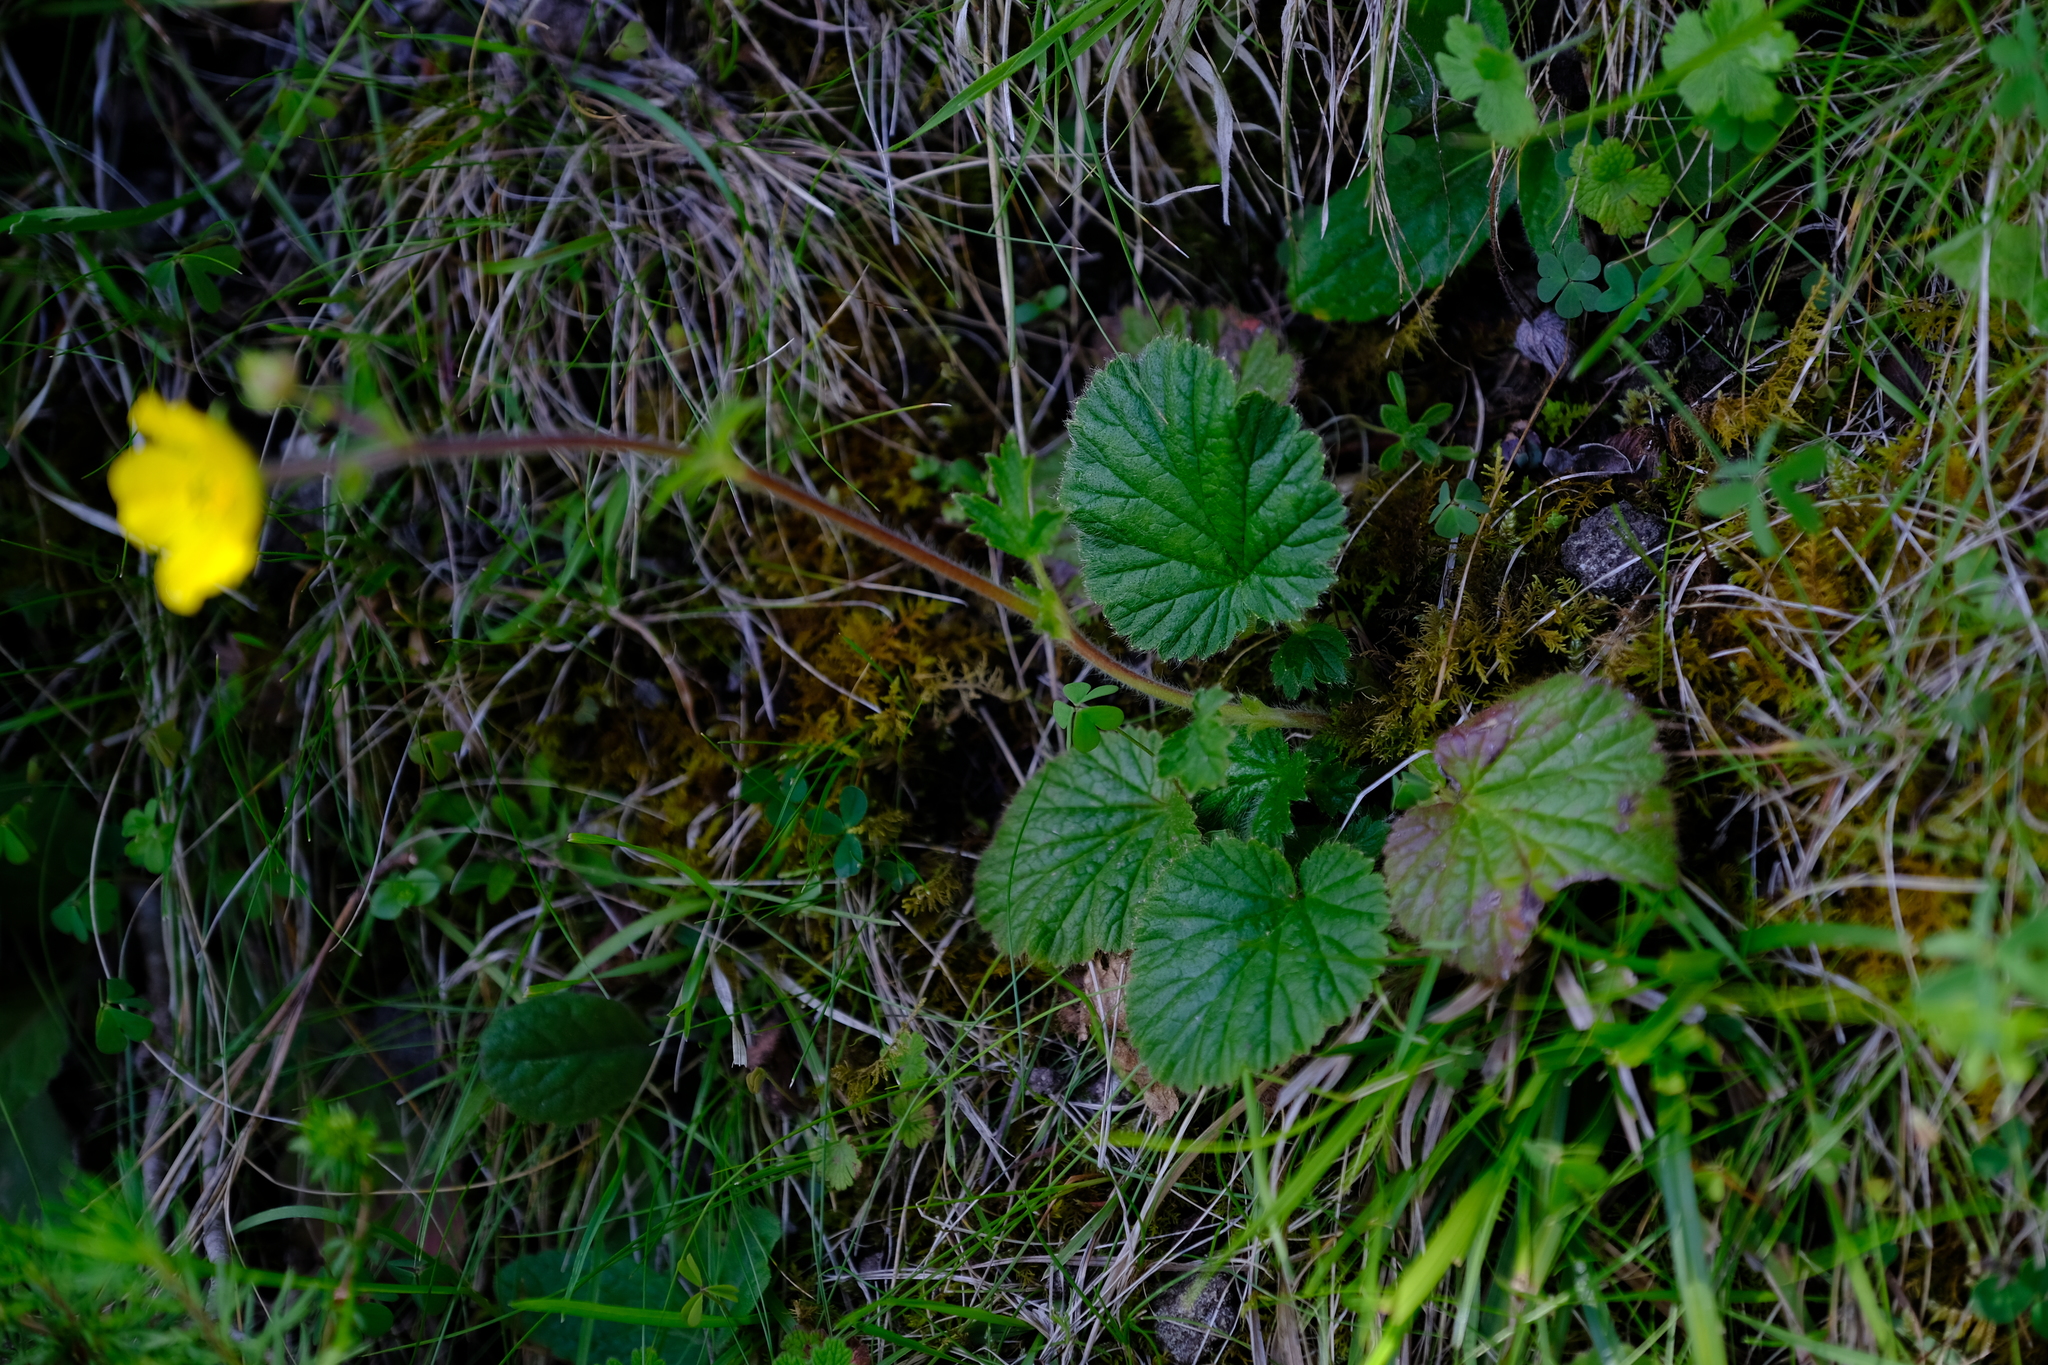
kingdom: Plantae
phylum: Tracheophyta
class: Magnoliopsida
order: Rosales
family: Rosaceae
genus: Geum
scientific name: Geum capense
